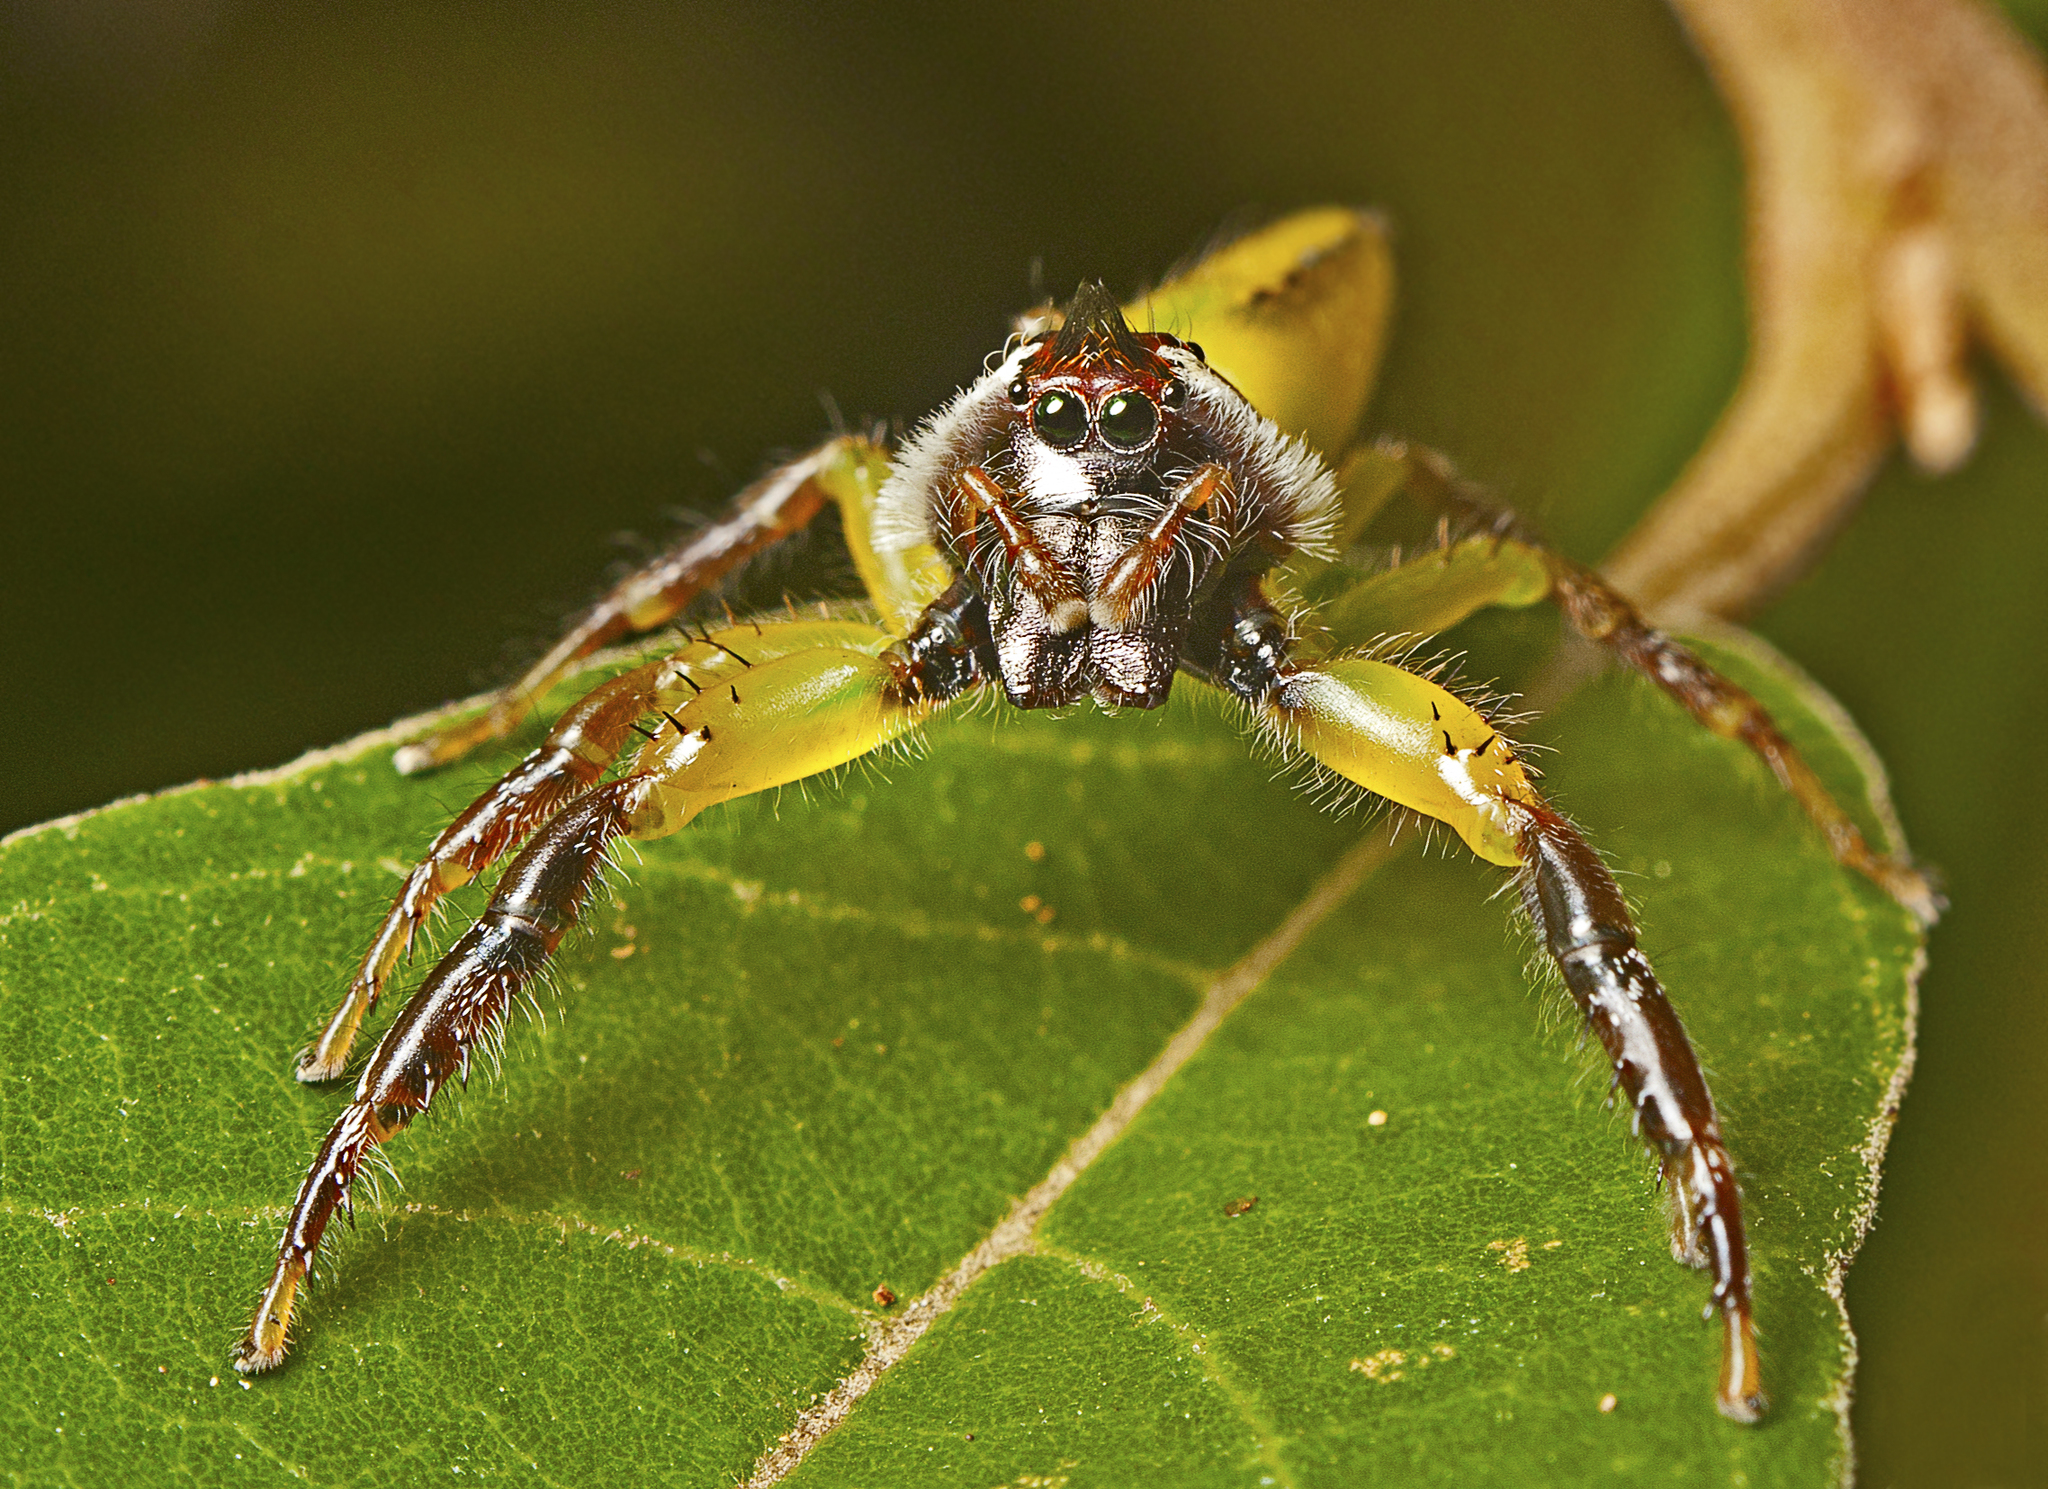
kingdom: Animalia
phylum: Arthropoda
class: Arachnida
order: Araneae
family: Salticidae
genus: Mopsus
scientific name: Mopsus mormon
